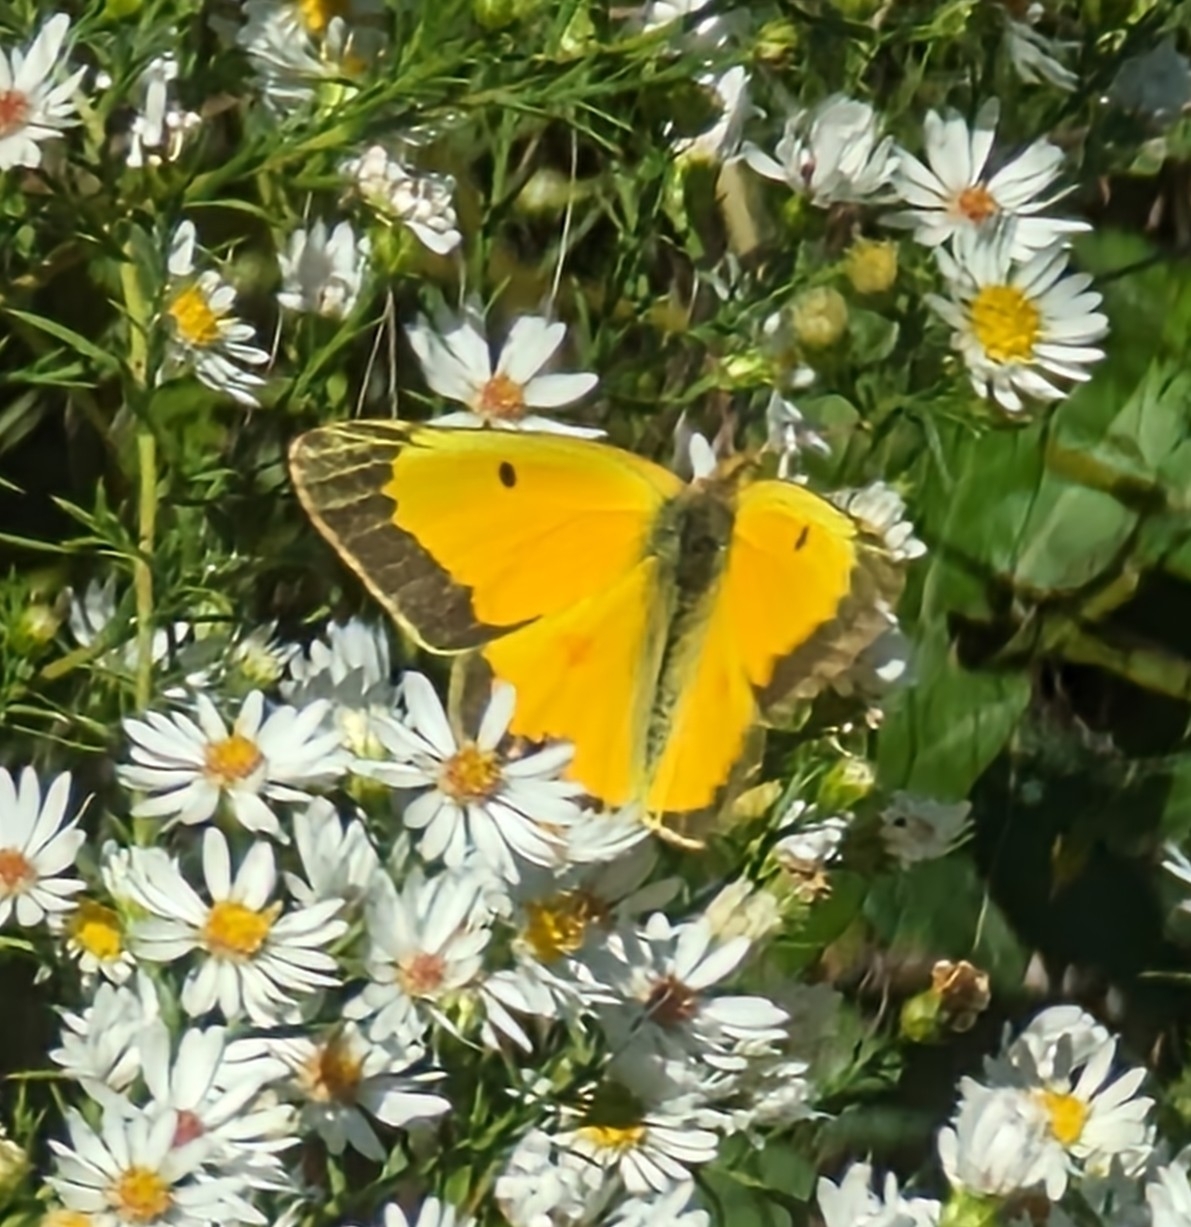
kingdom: Animalia
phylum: Arthropoda
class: Insecta
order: Lepidoptera
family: Pieridae
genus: Colias
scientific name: Colias eurytheme
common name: Alfalfa butterfly
